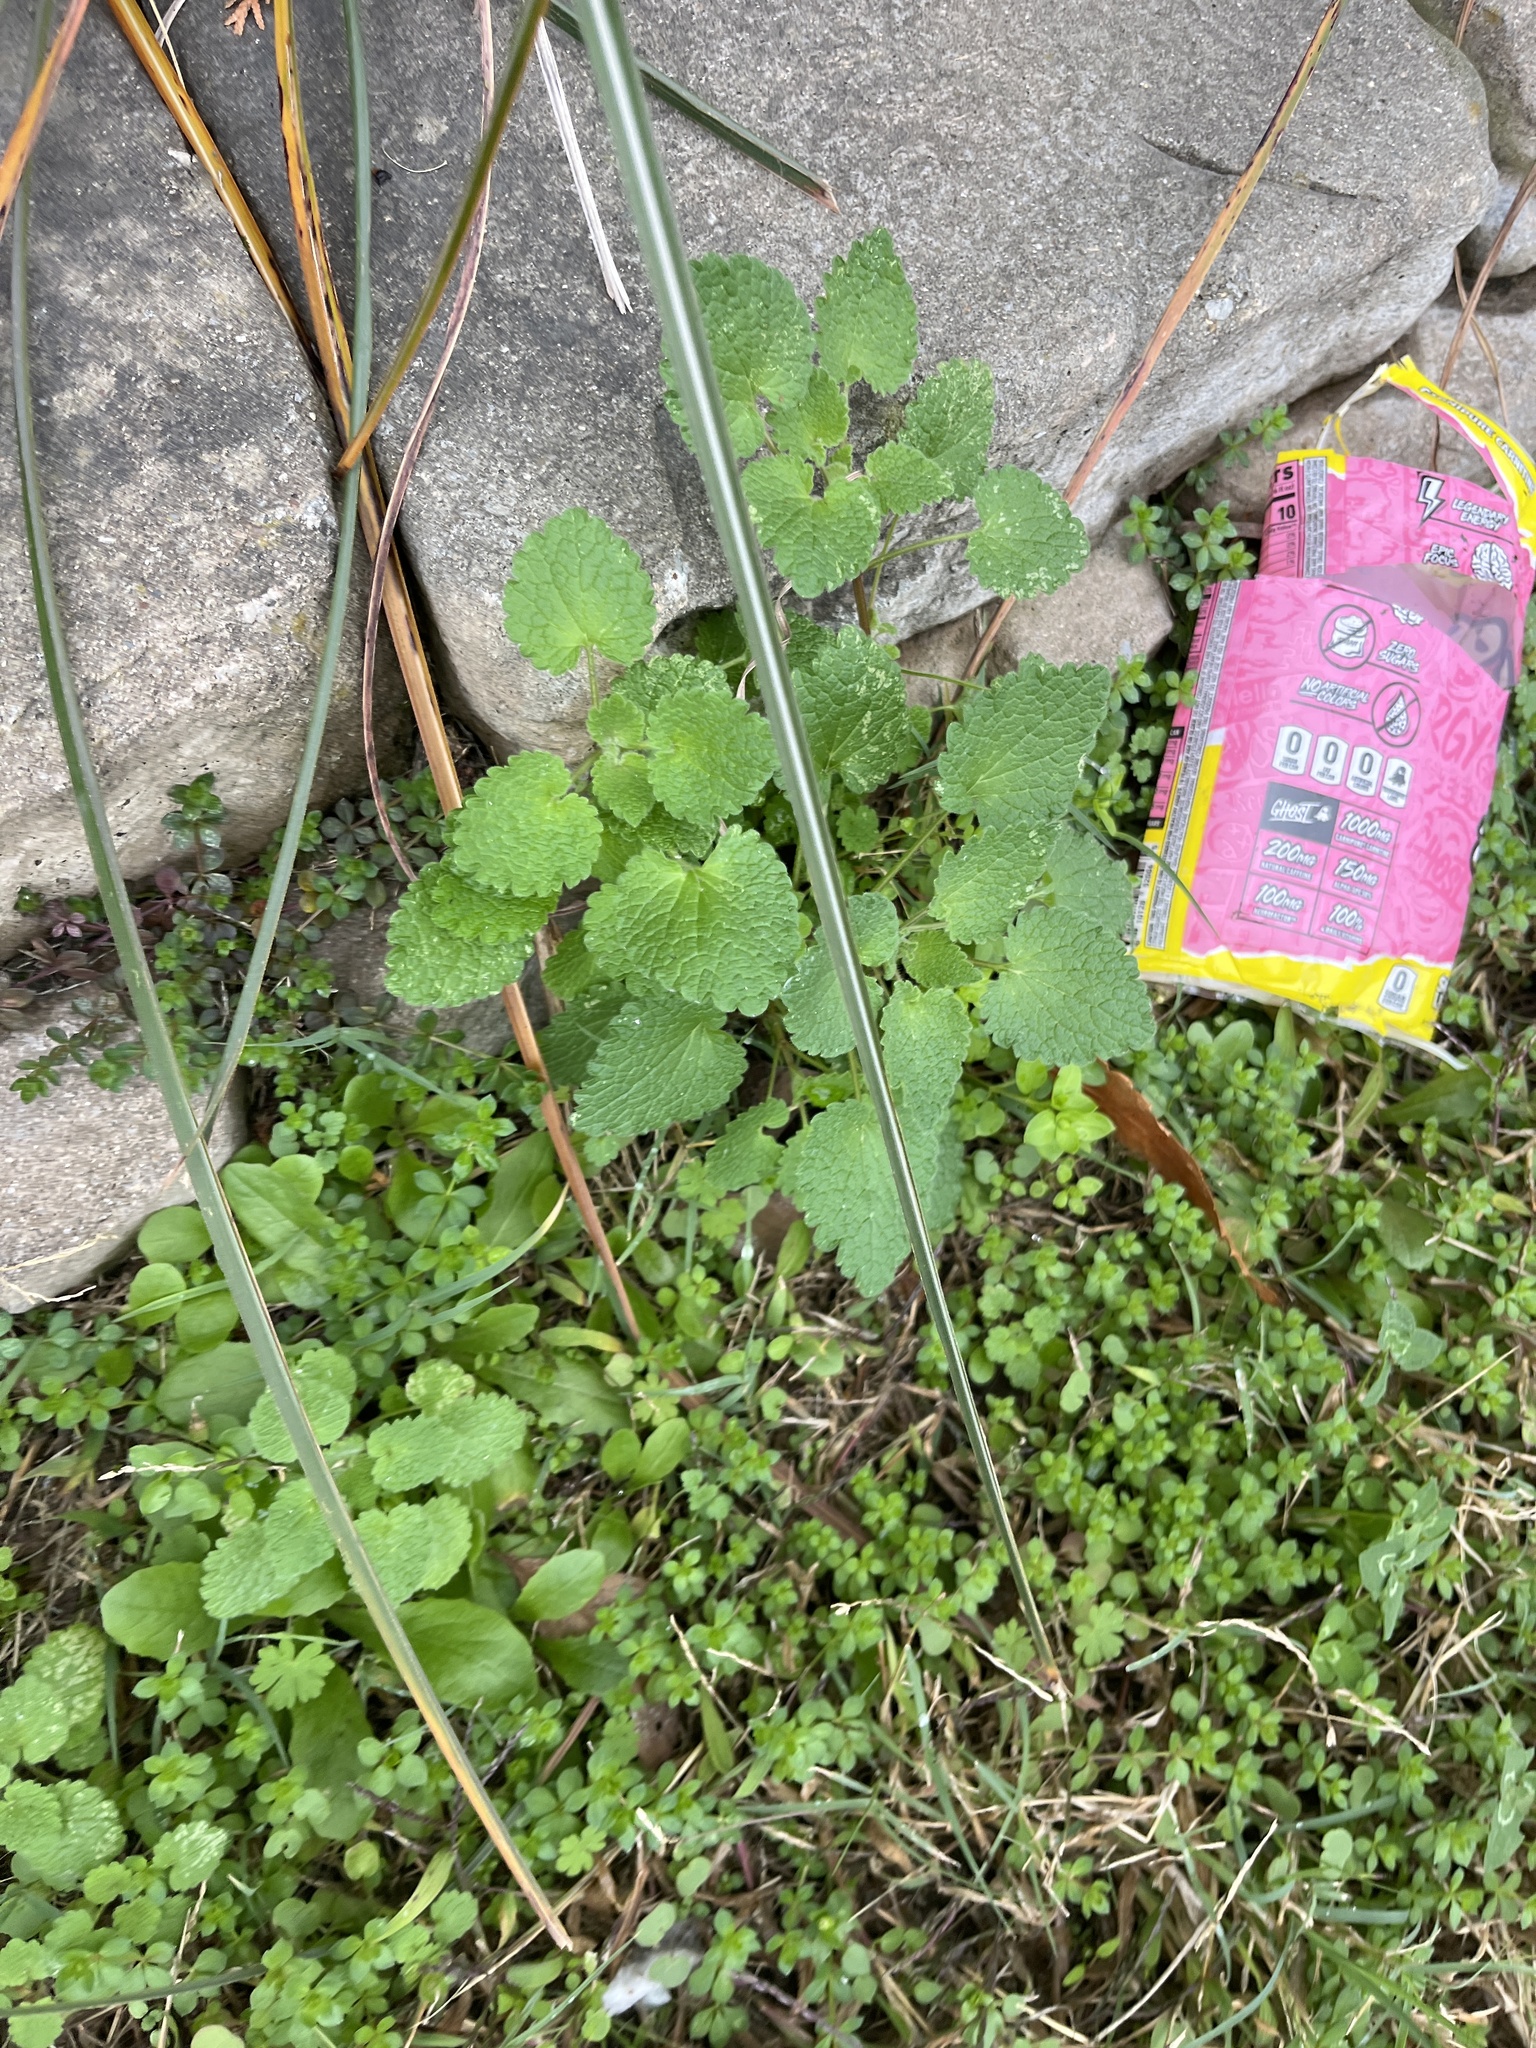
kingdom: Plantae
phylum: Tracheophyta
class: Magnoliopsida
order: Lamiales
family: Lamiaceae
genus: Lamium
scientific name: Lamium purpureum
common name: Red dead-nettle
